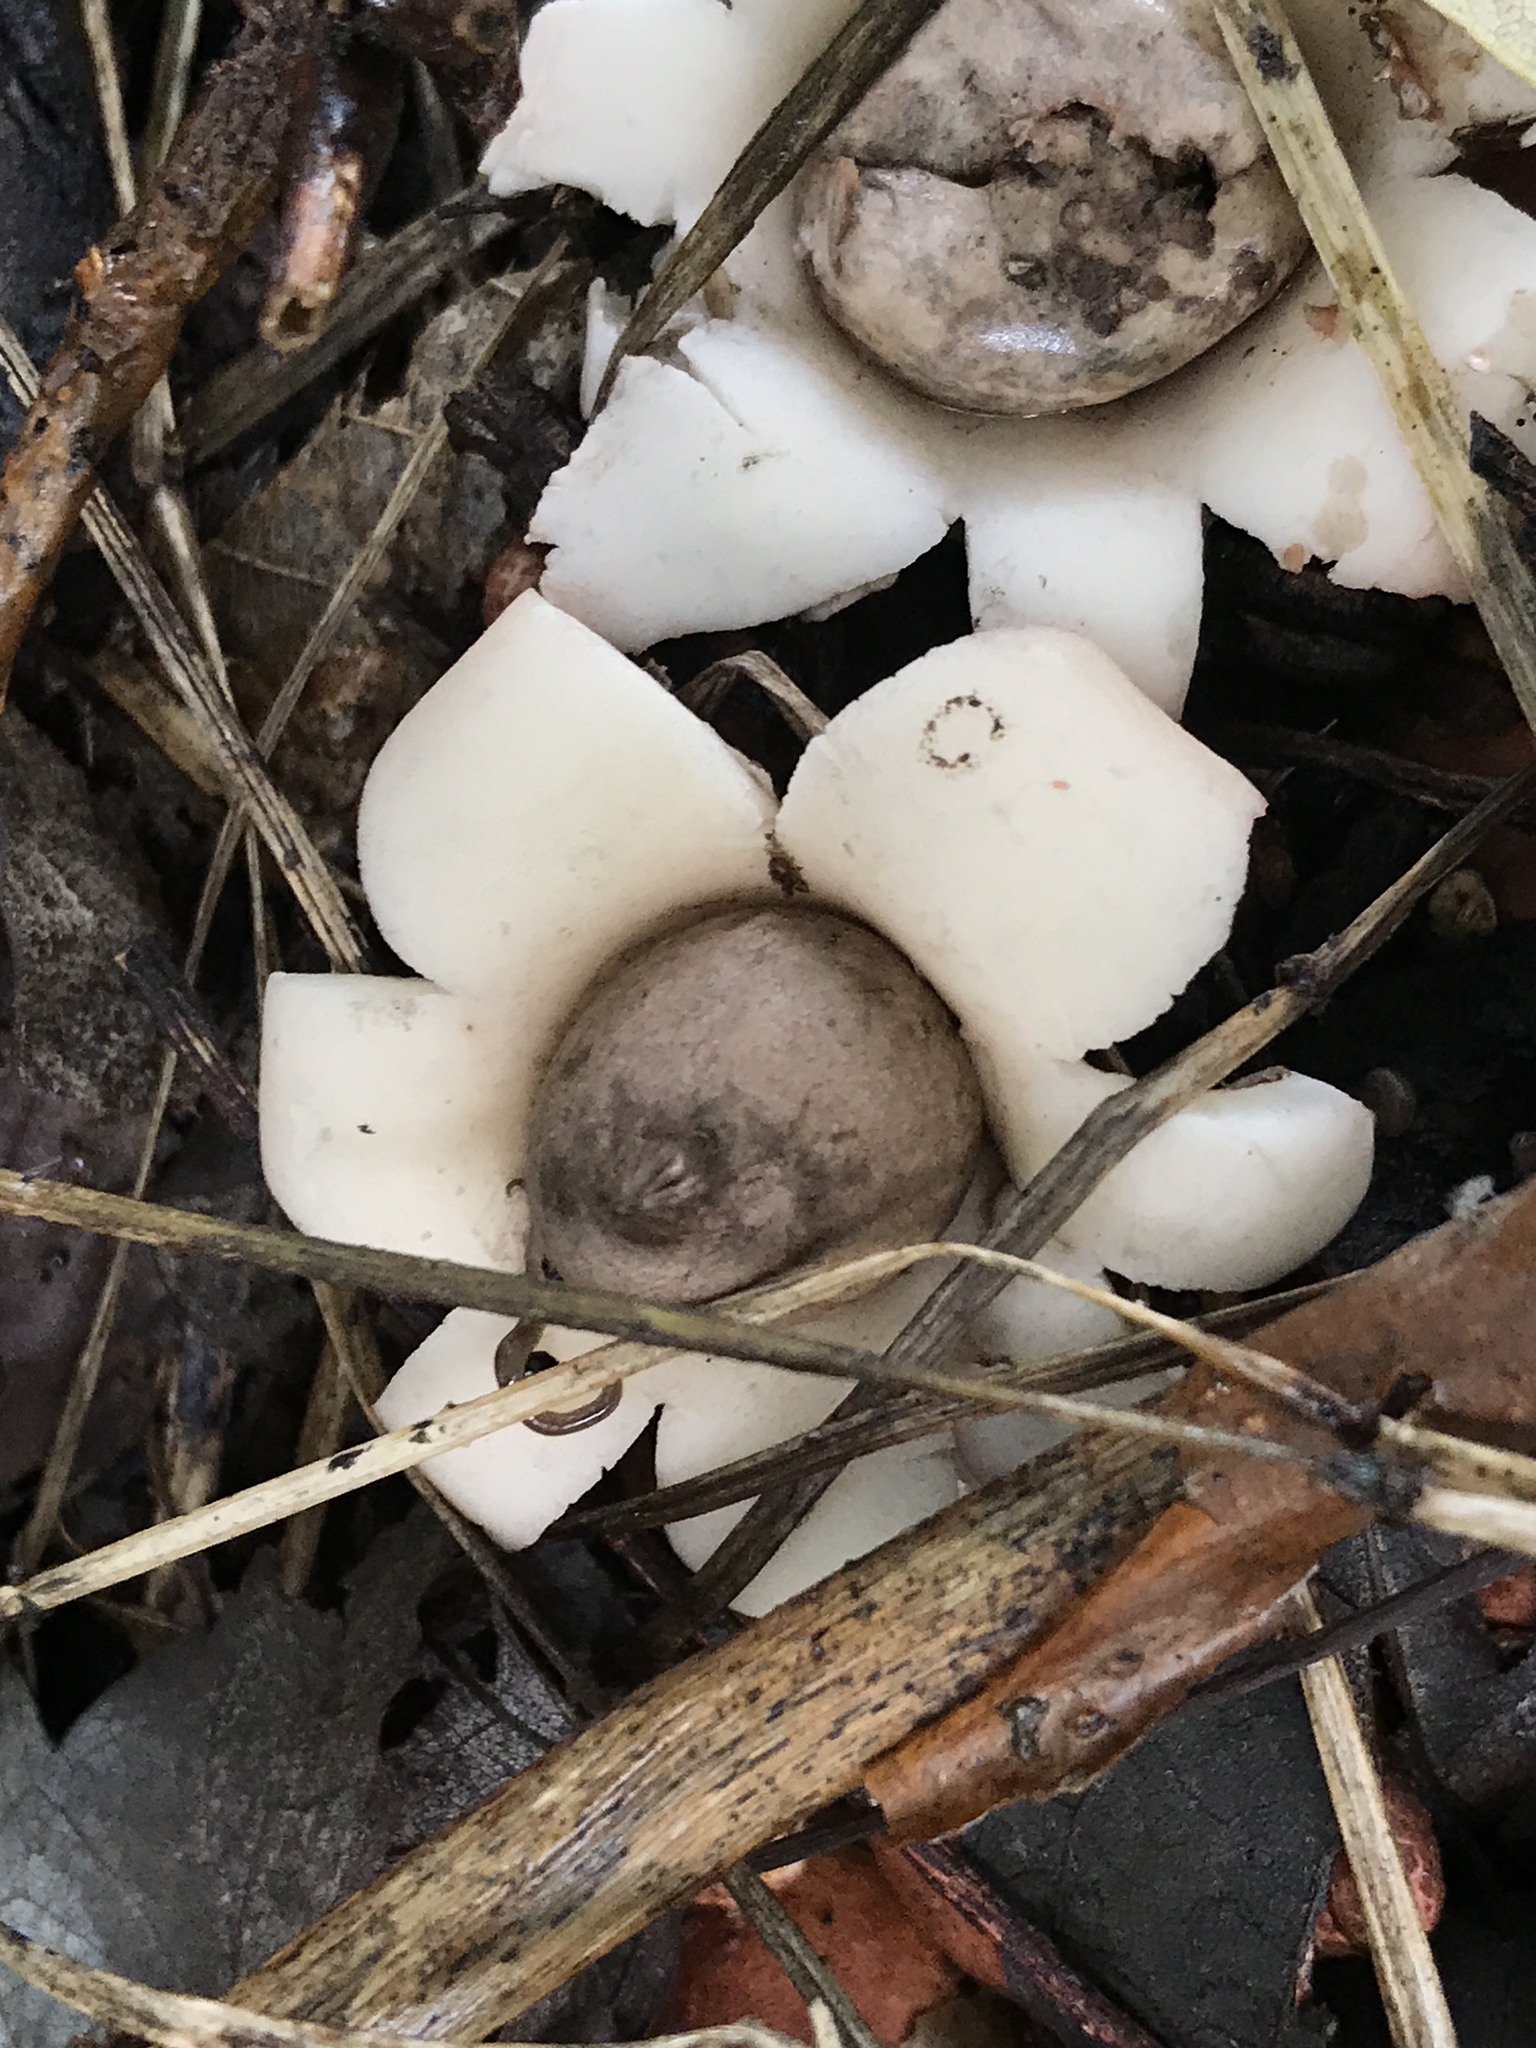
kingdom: Fungi
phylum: Basidiomycota
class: Agaricomycetes
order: Geastrales
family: Geastraceae
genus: Geastrum
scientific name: Geastrum saccatum
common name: Rounded earthstar
